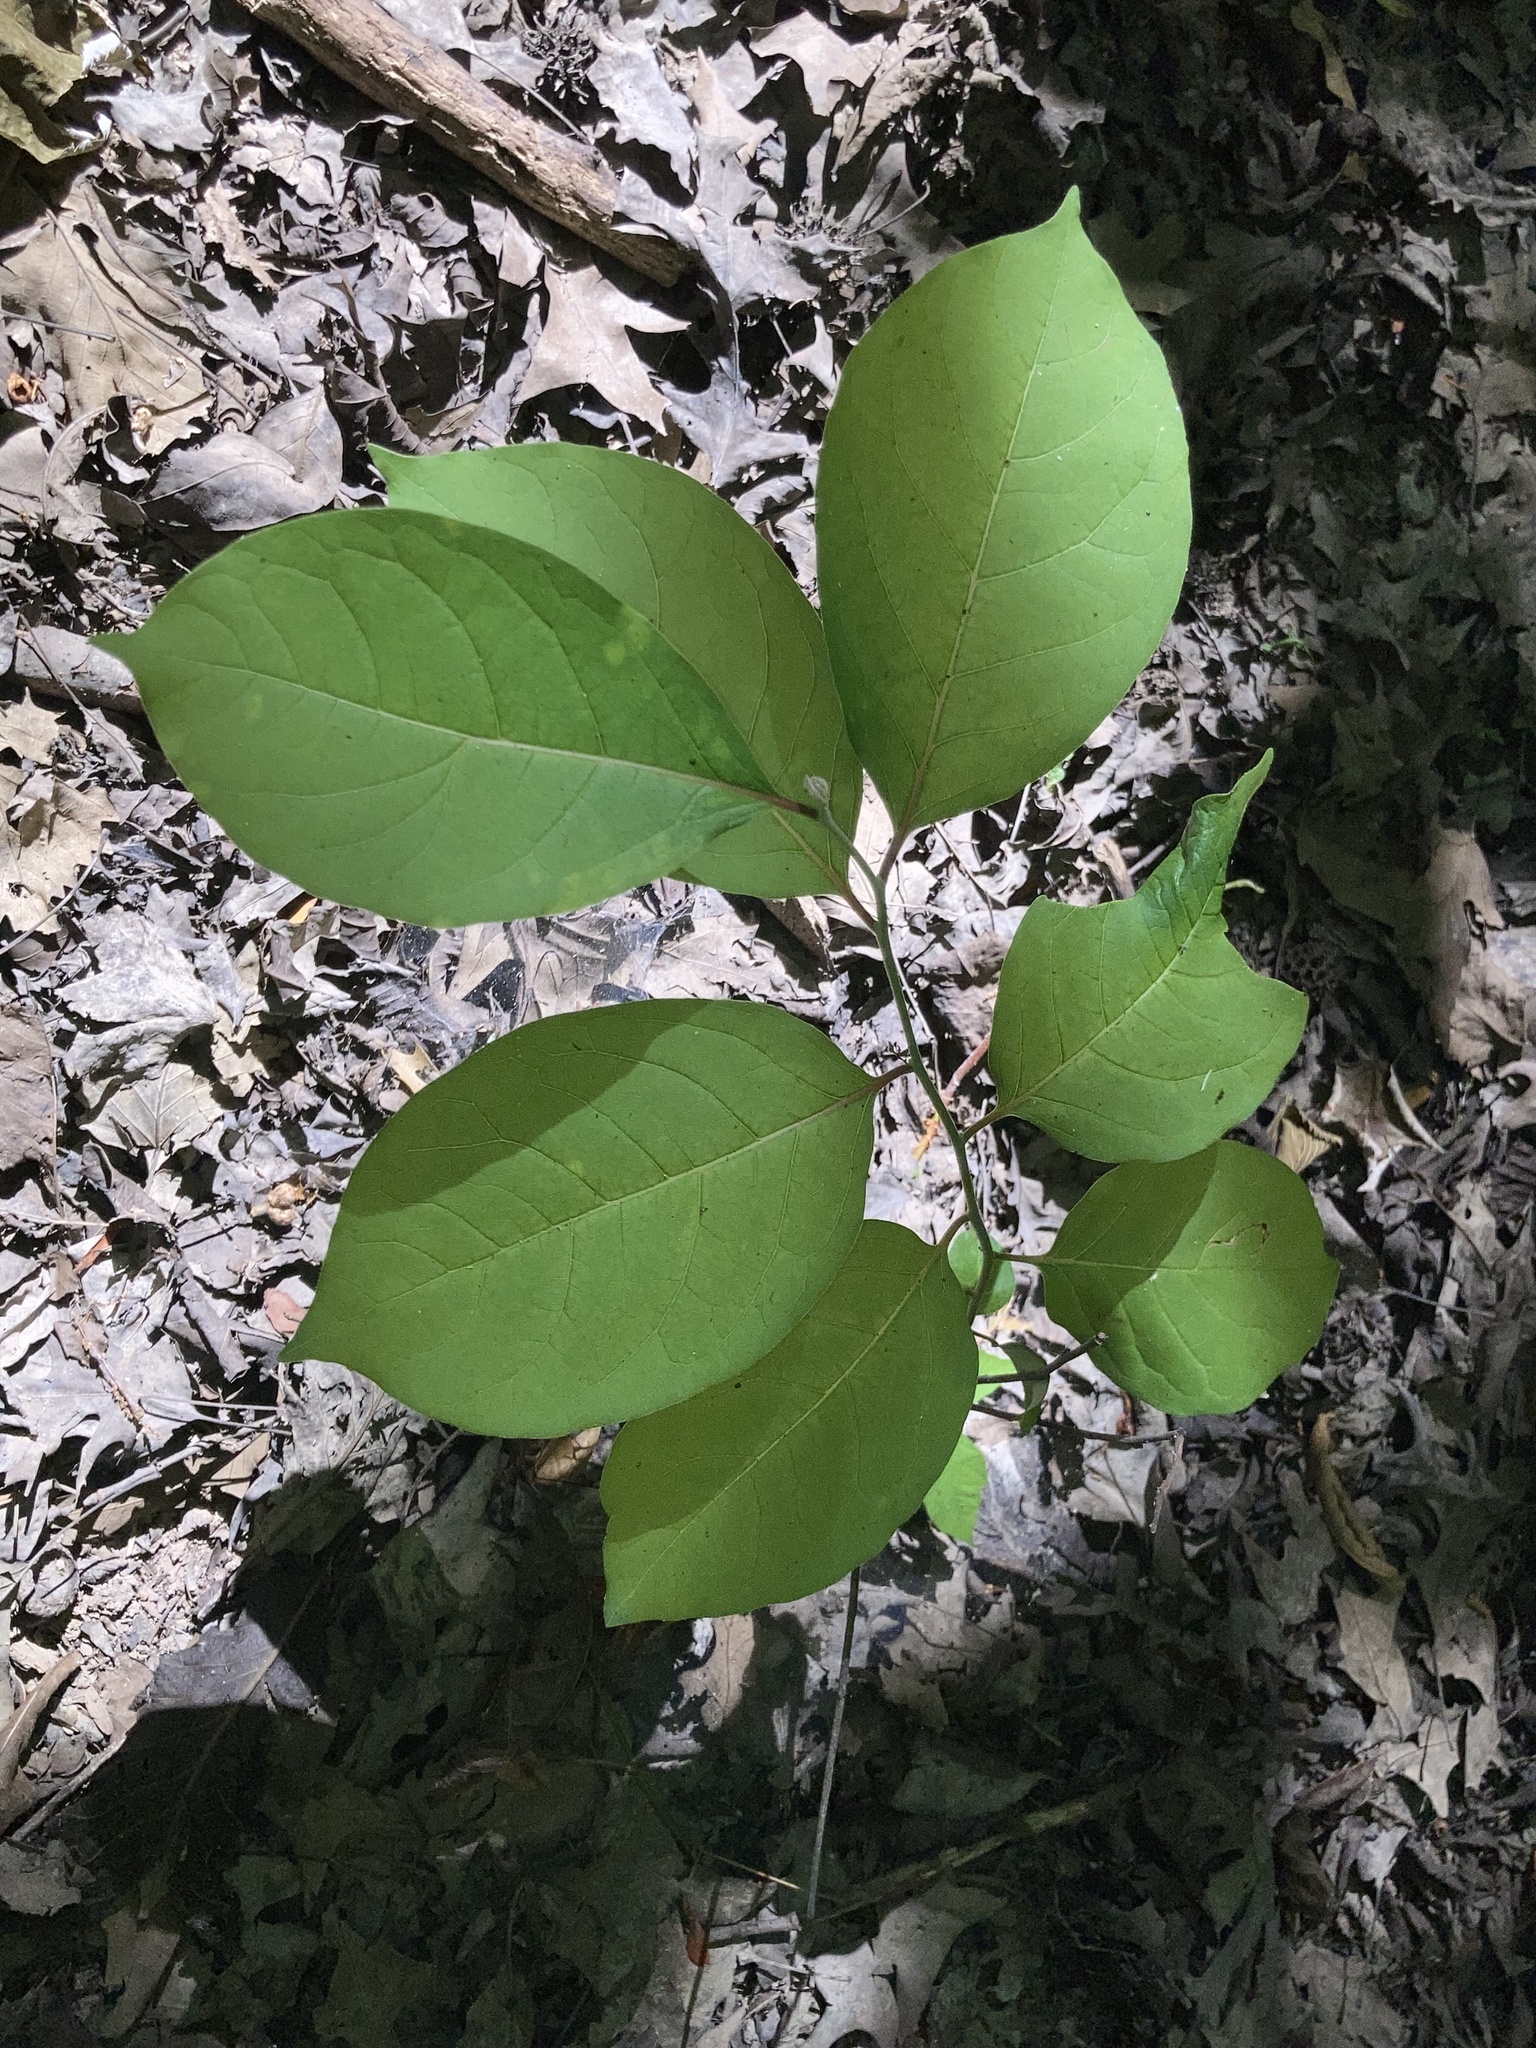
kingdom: Plantae
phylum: Tracheophyta
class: Magnoliopsida
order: Ericales
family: Ebenaceae
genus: Diospyros
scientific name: Diospyros virginiana
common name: Persimmon
